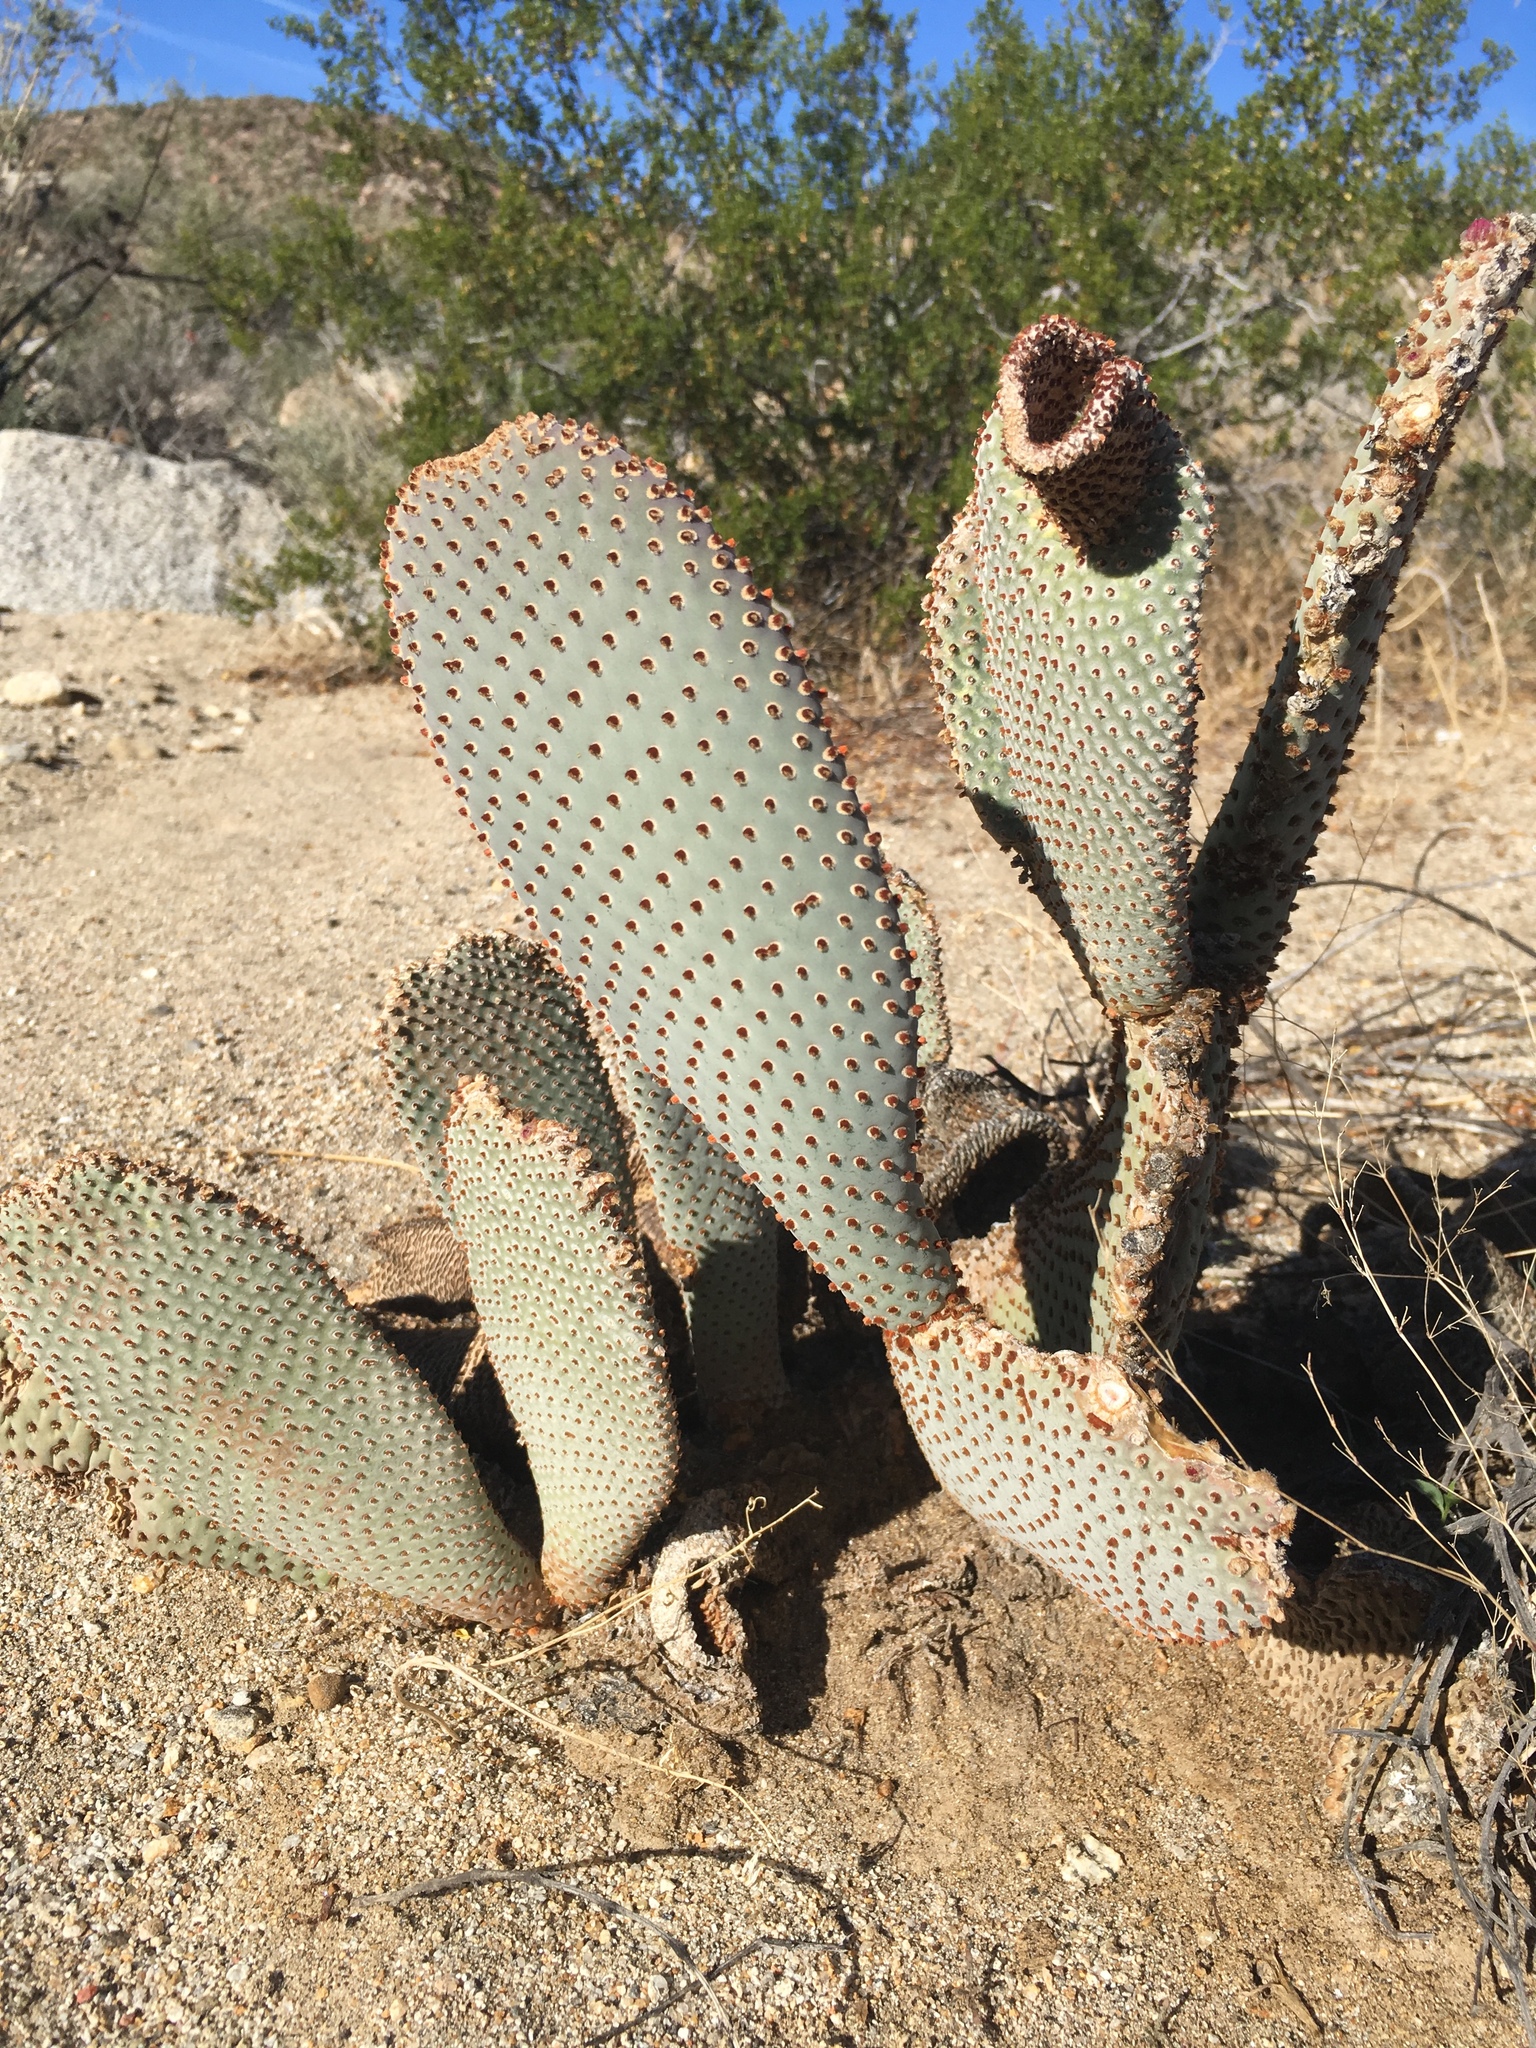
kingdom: Plantae
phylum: Tracheophyta
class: Magnoliopsida
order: Caryophyllales
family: Cactaceae
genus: Opuntia
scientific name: Opuntia basilaris
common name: Beavertail prickly-pear
